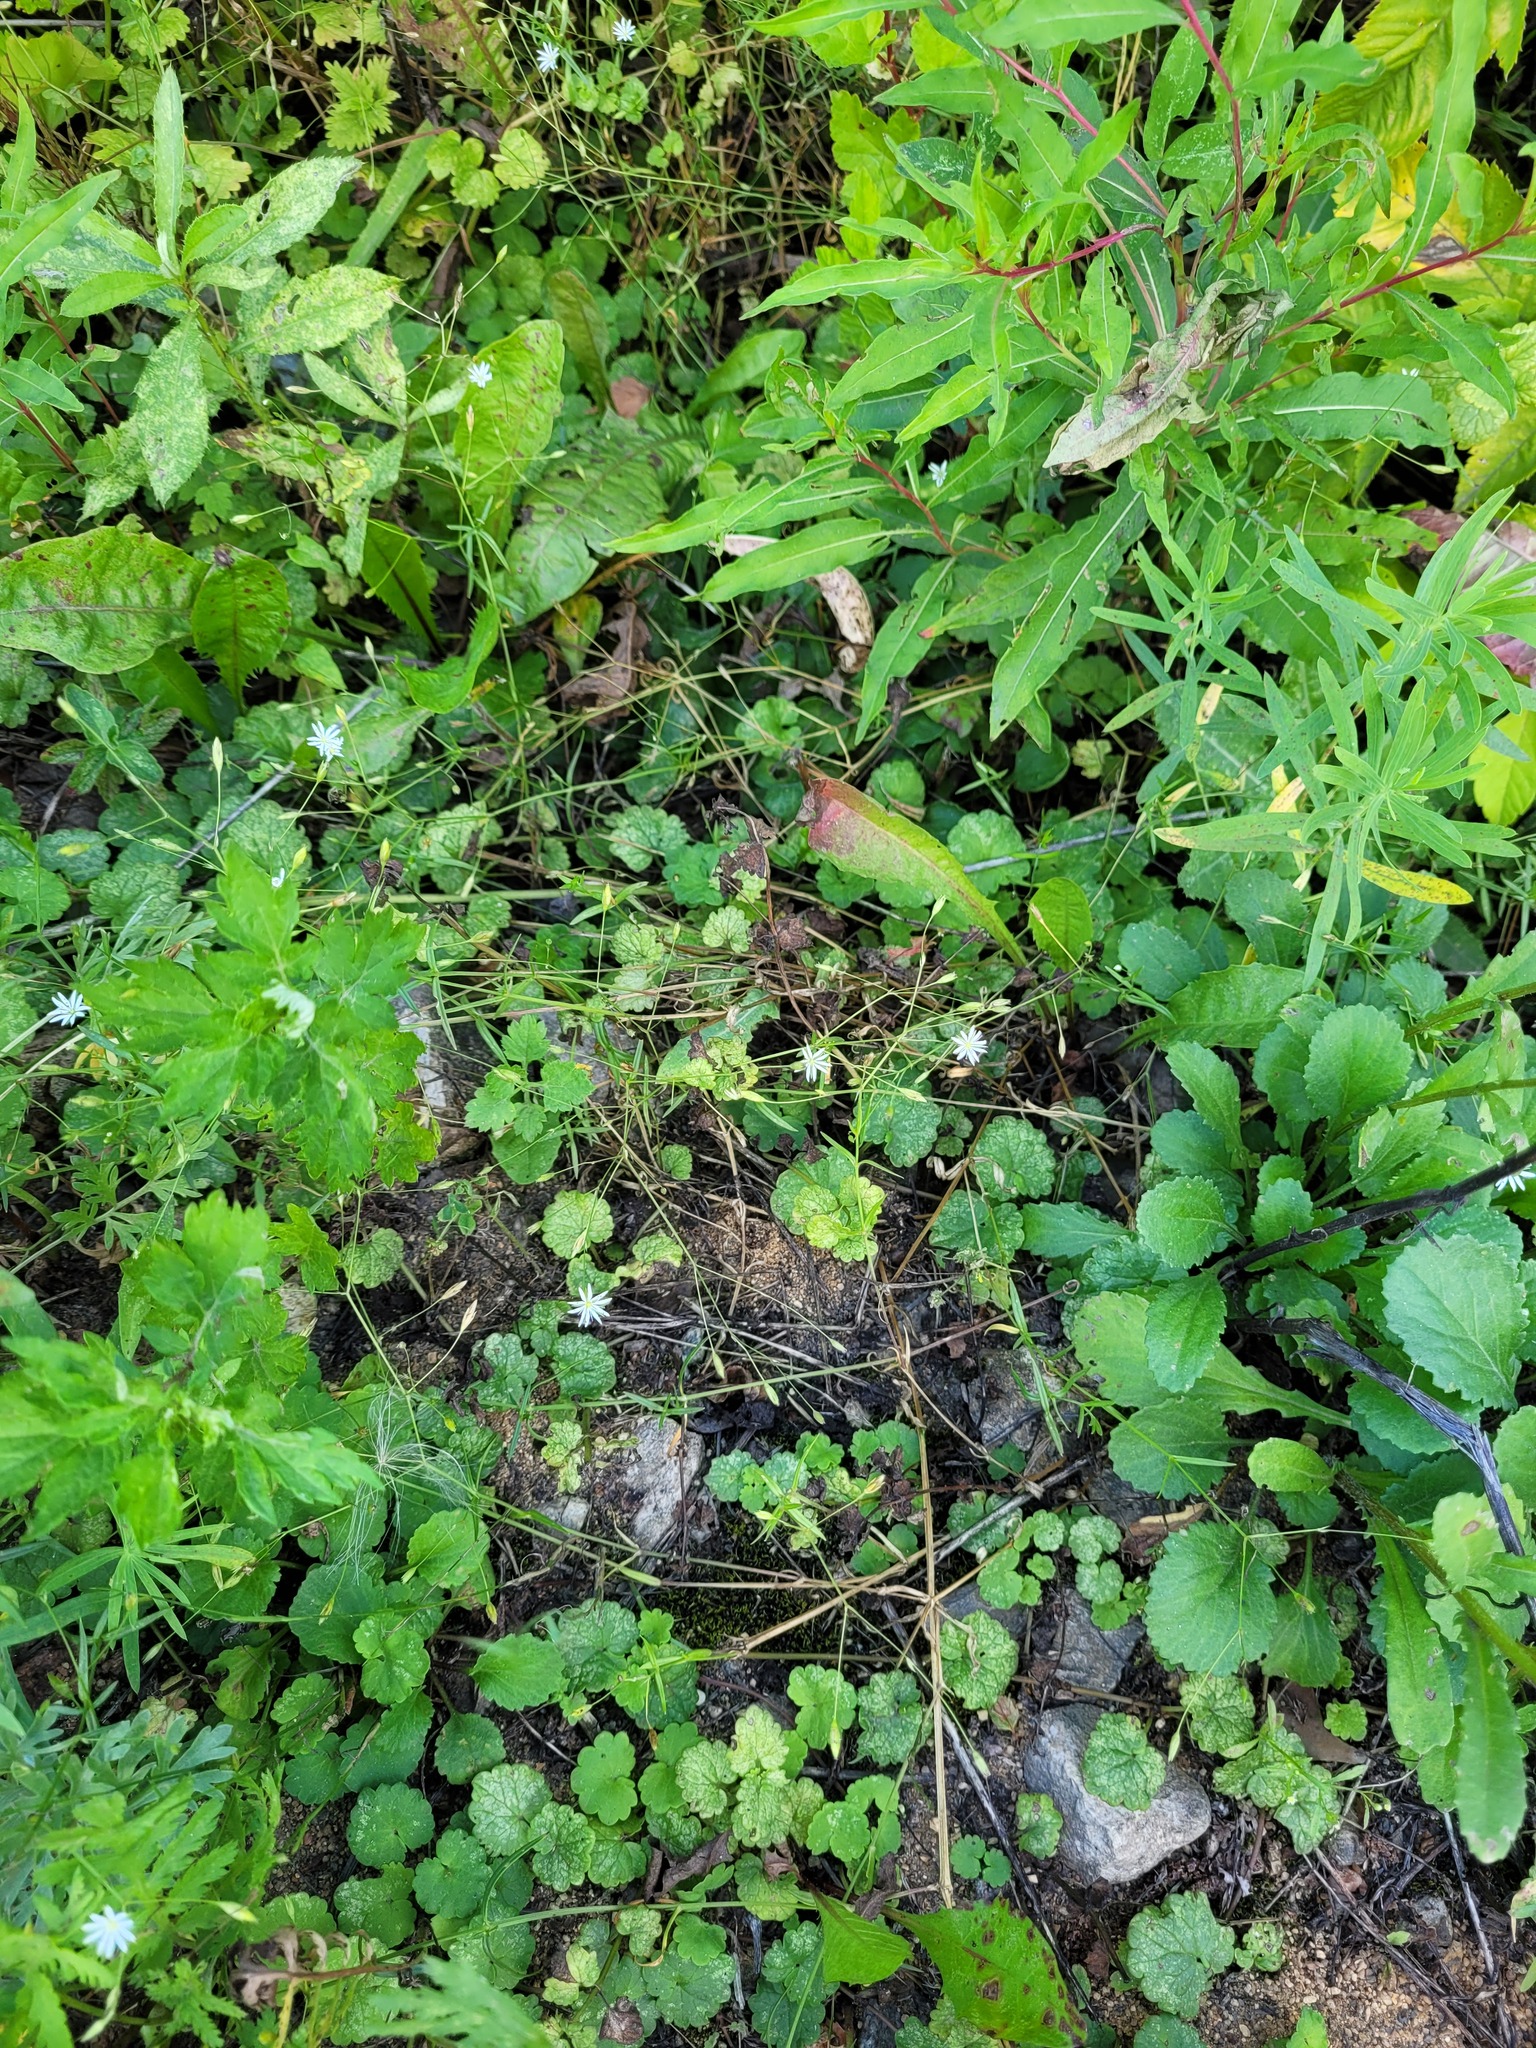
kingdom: Plantae
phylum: Tracheophyta
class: Magnoliopsida
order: Lamiales
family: Lamiaceae
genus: Glechoma
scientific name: Glechoma hederacea
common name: Ground ivy
